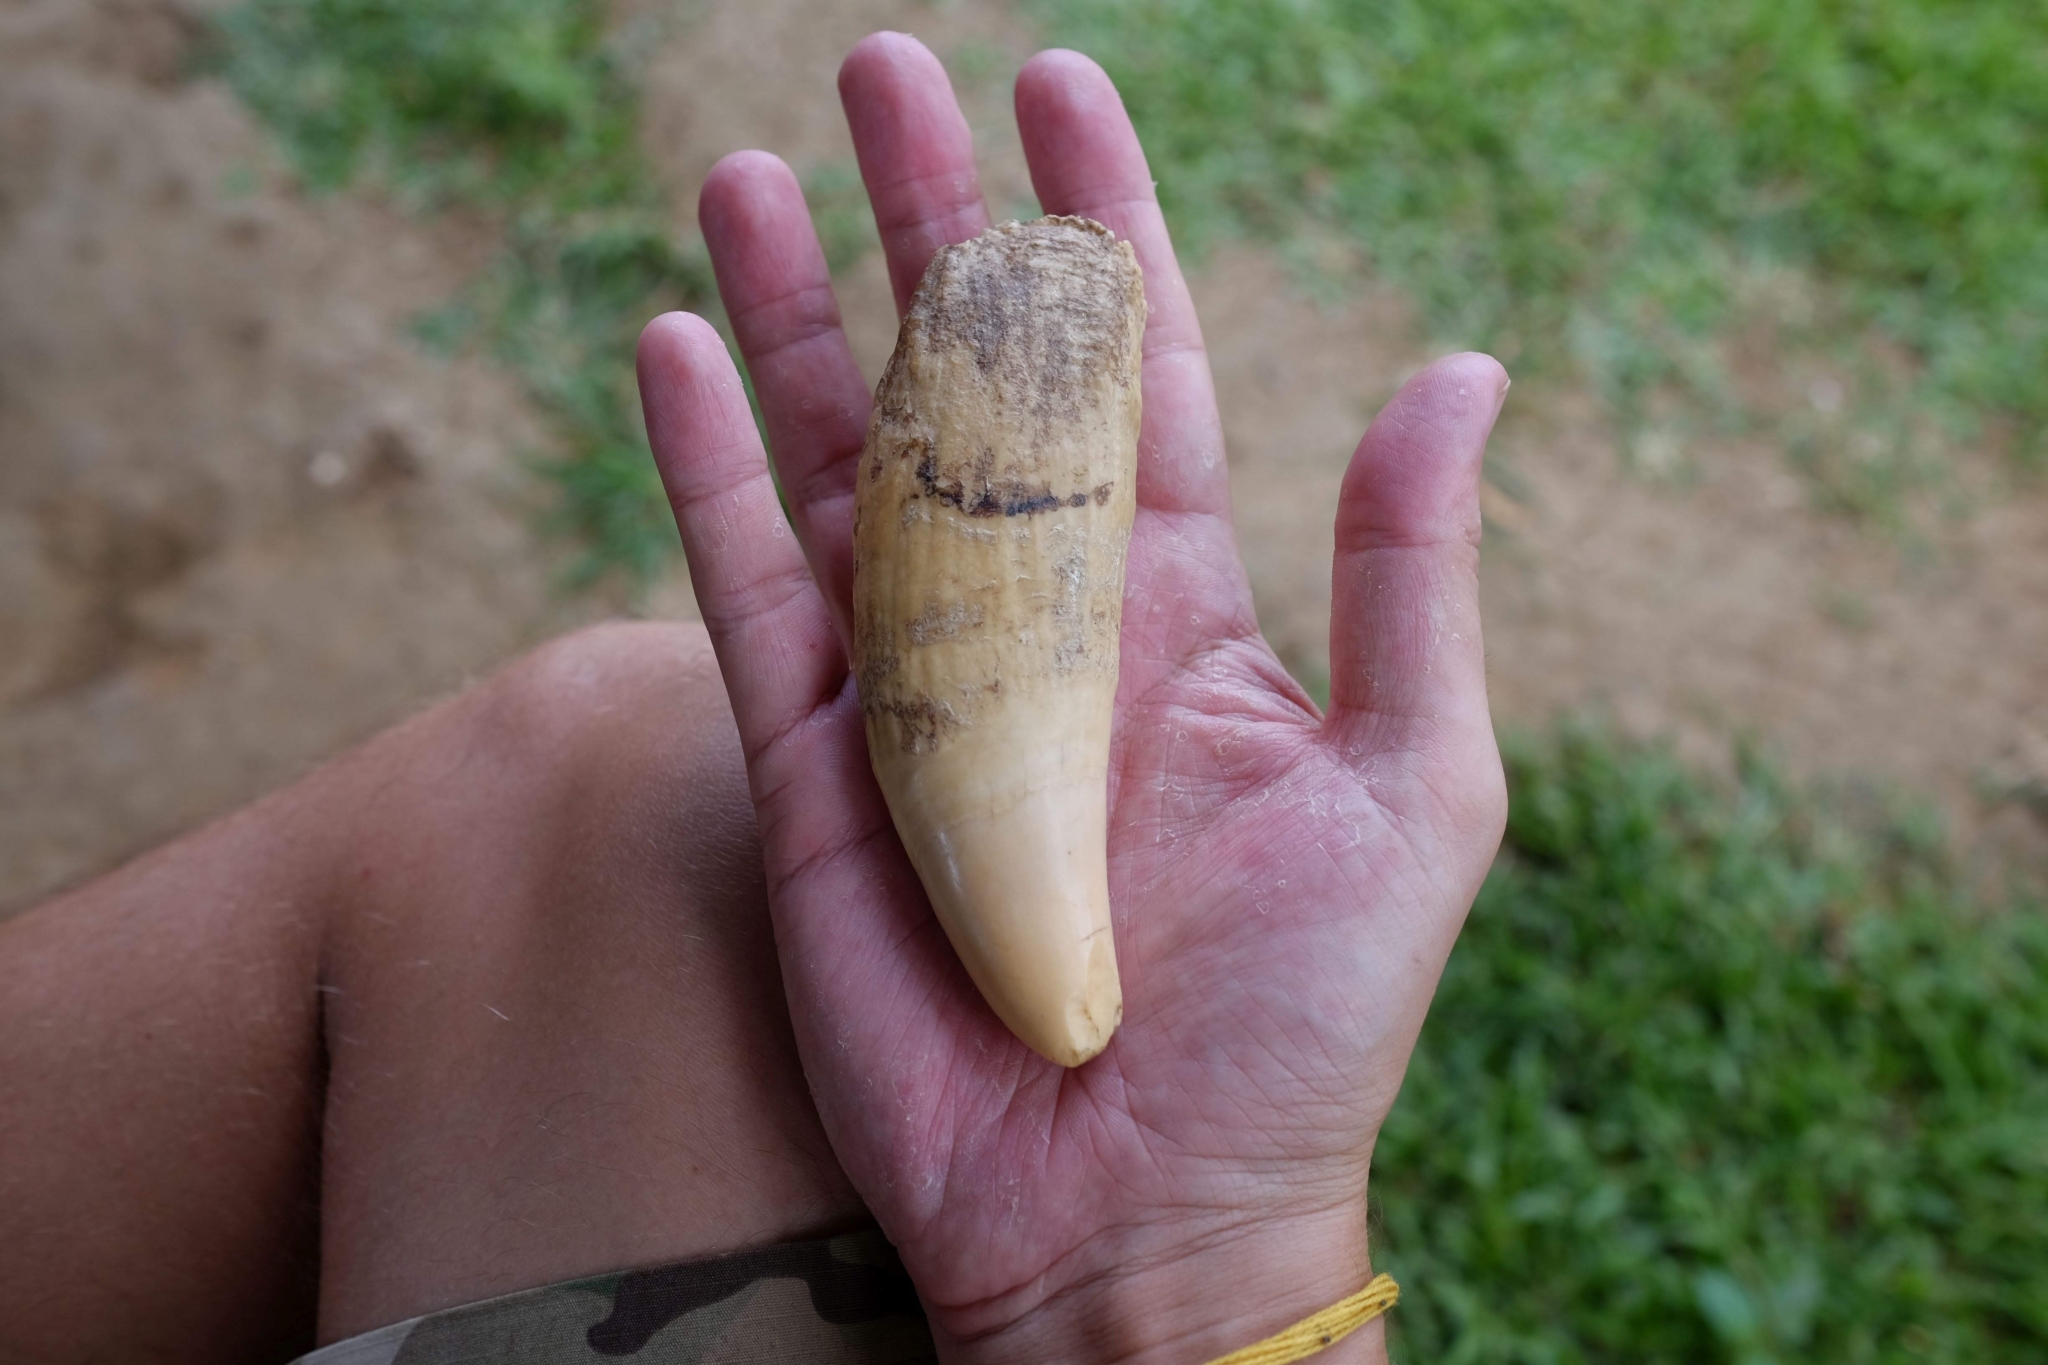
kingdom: Animalia
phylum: Chordata
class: Mammalia
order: Cetacea
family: Physeteridae
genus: Physeter
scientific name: Physeter macrocephalus
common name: Sperm whale
